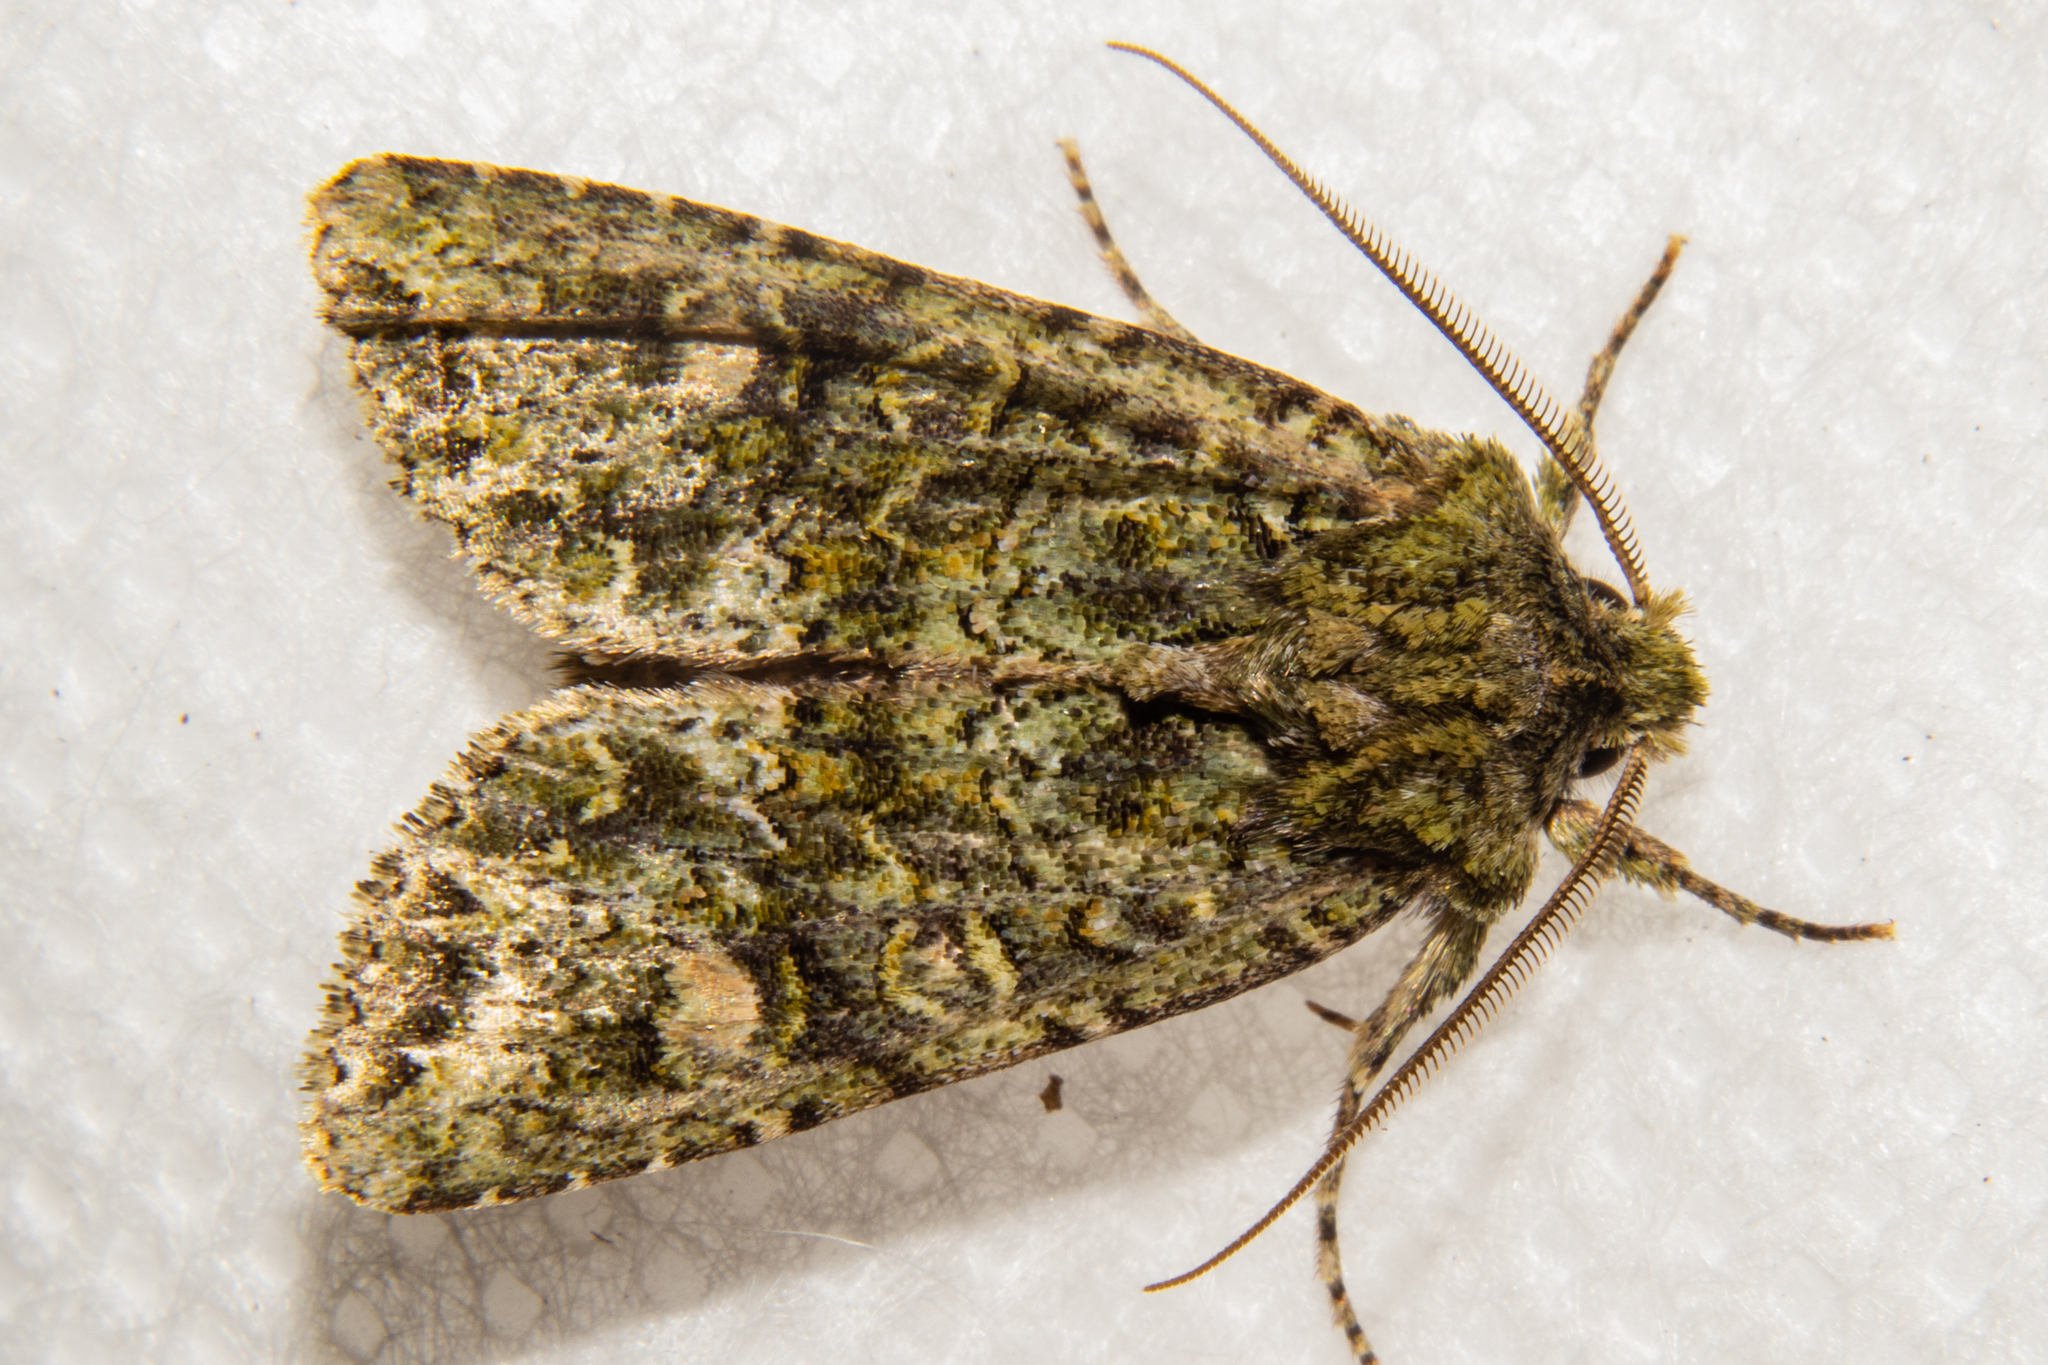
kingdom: Animalia
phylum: Arthropoda
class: Insecta
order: Lepidoptera
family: Noctuidae
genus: Ichneutica
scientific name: Ichneutica
